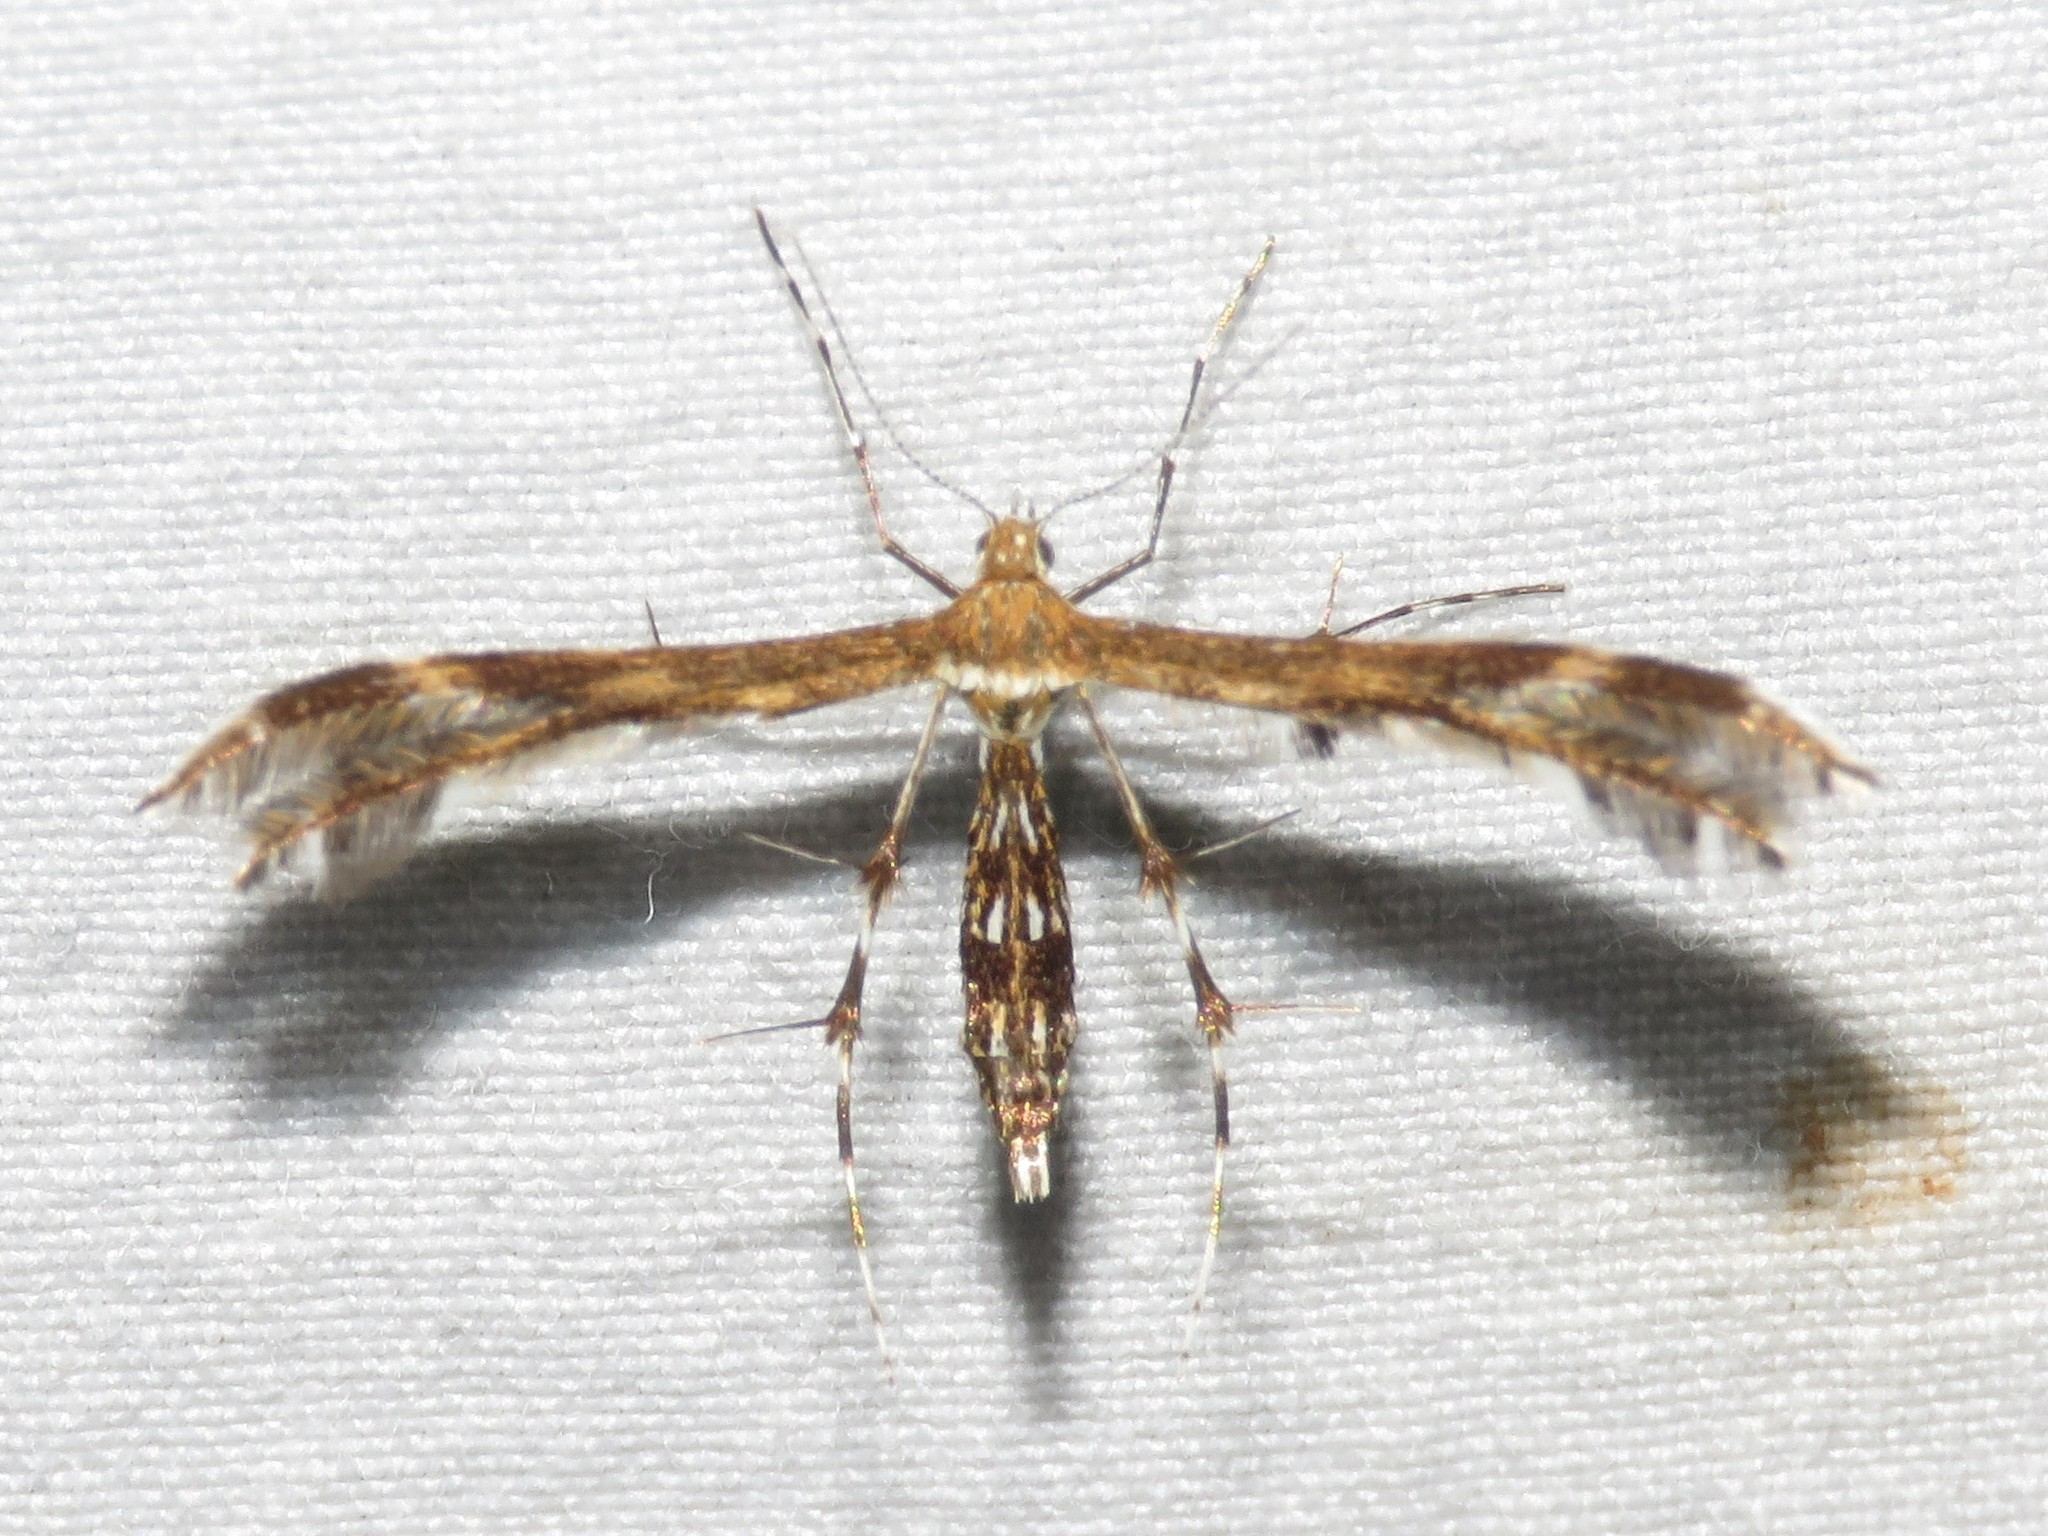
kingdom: Animalia
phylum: Arthropoda
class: Insecta
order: Lepidoptera
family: Pterophoridae
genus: Dejongia
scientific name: Dejongia lobidactylus
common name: Lobed plume moth
